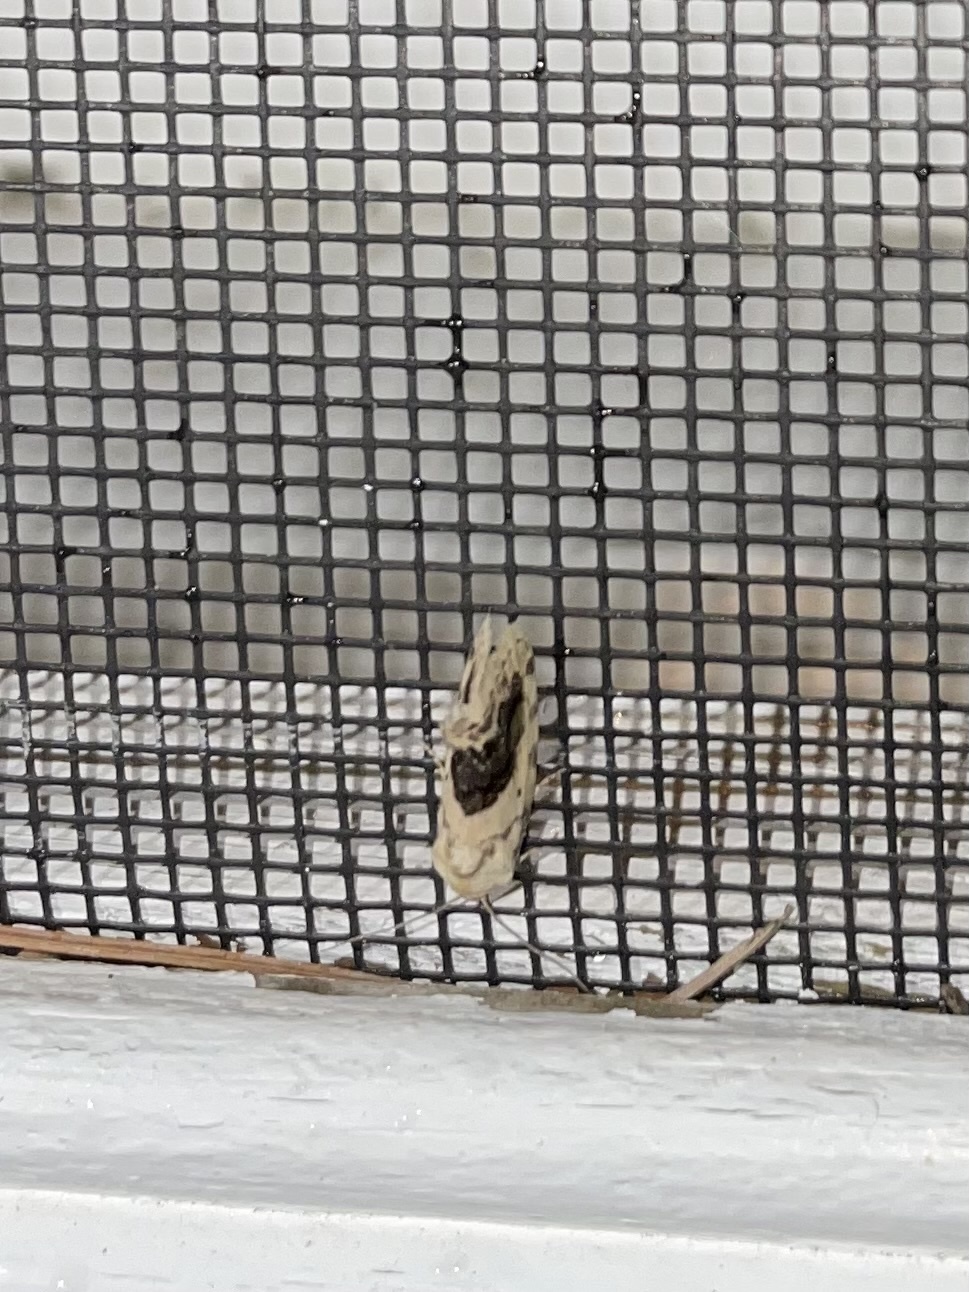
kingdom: Animalia
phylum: Arthropoda
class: Insecta
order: Lepidoptera
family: Noctuidae
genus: Acontia
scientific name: Acontia erastrioides
